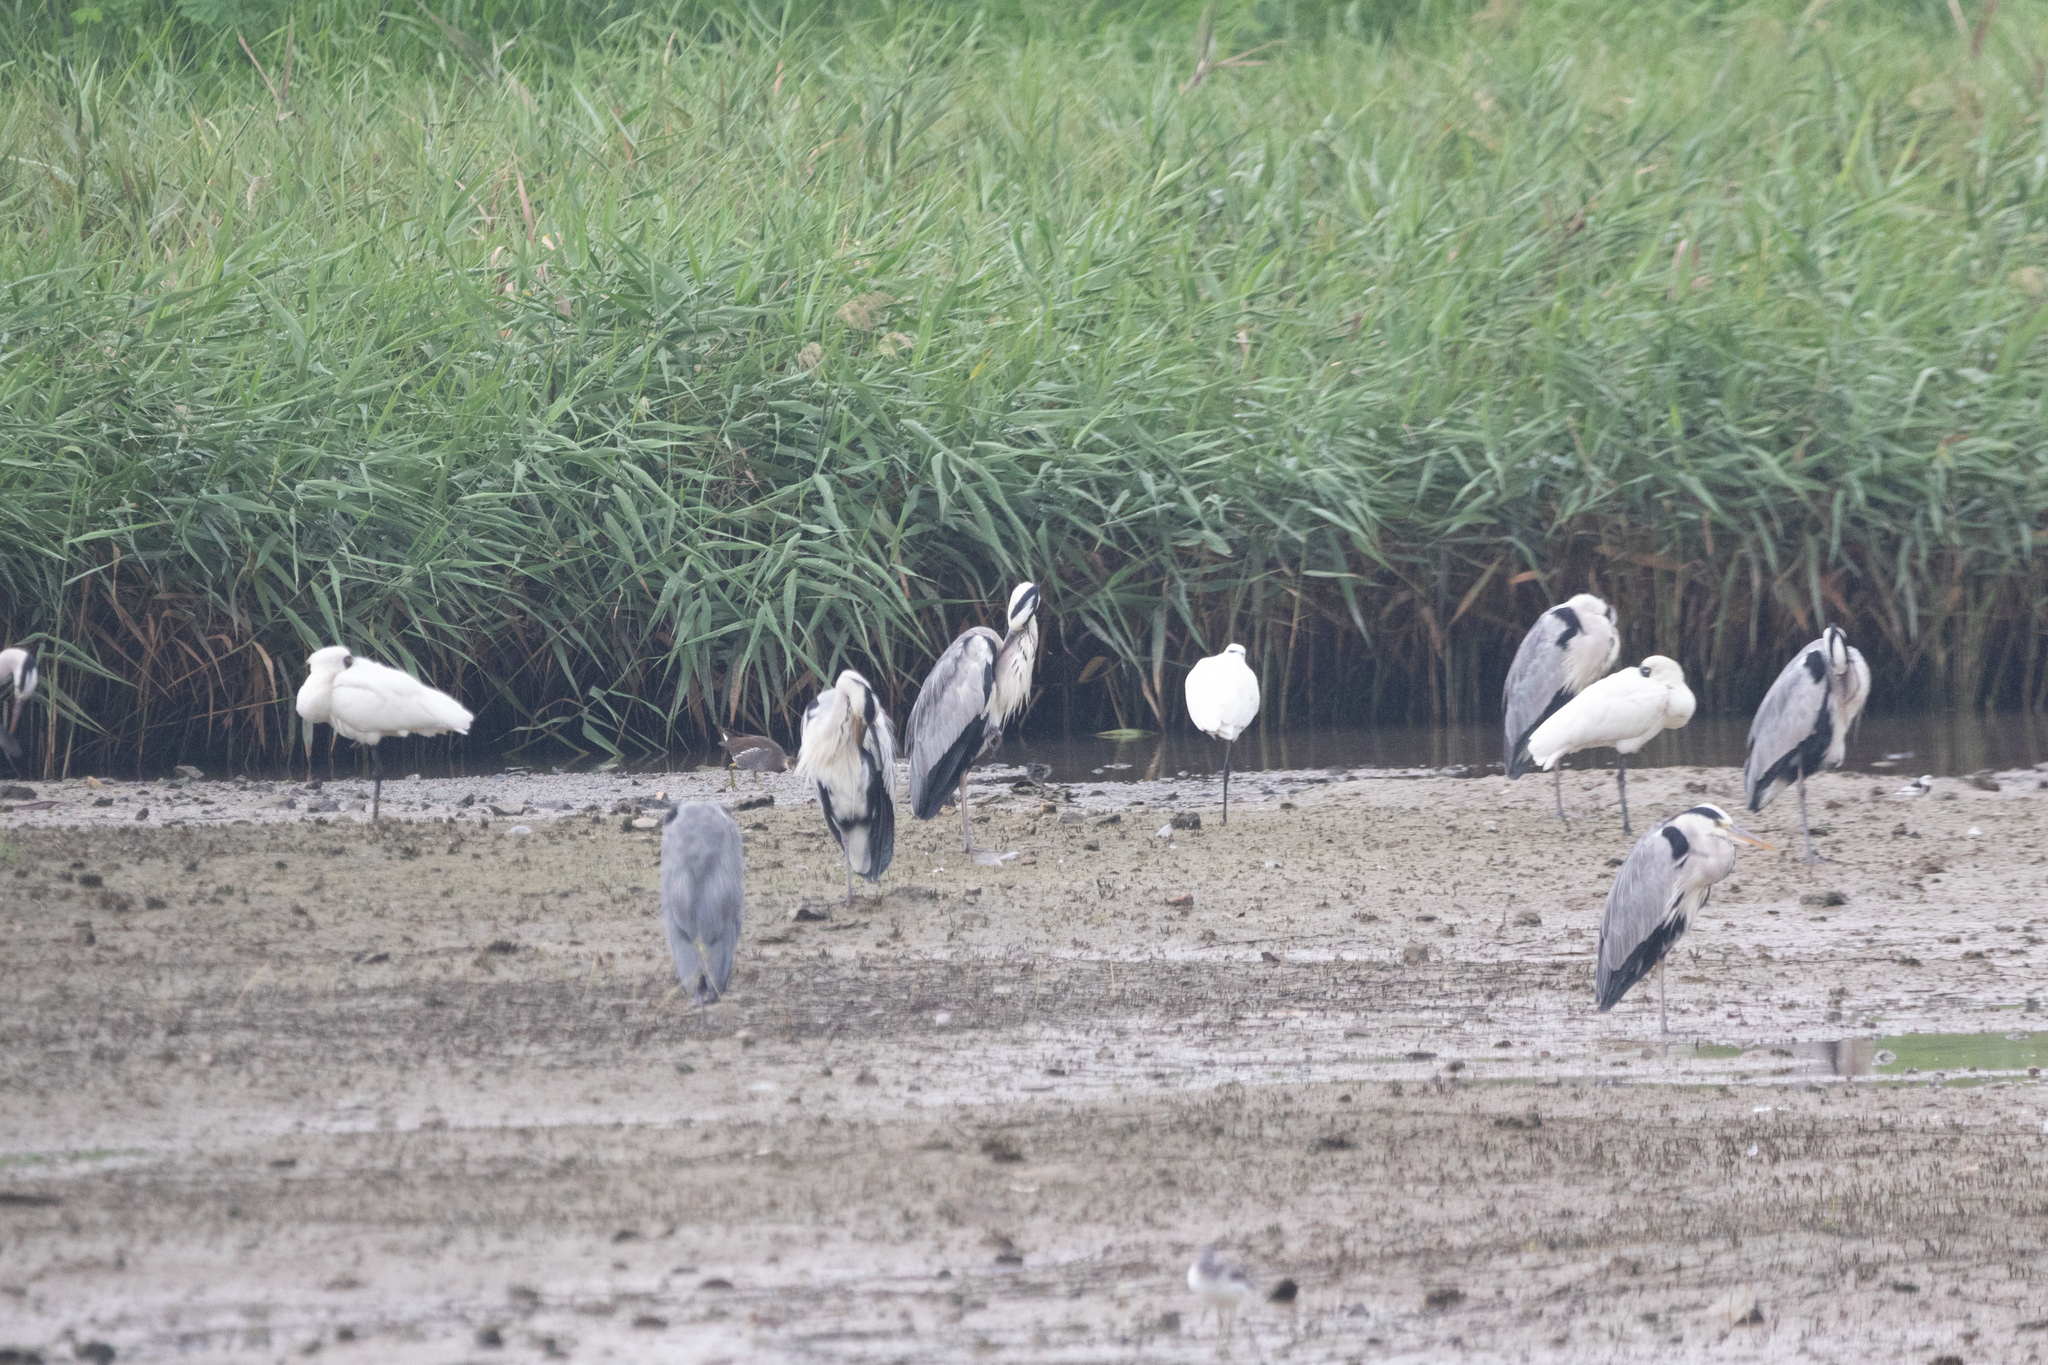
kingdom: Animalia
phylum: Chordata
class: Aves
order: Pelecaniformes
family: Ardeidae
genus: Ardea
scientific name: Ardea cinerea
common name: Grey heron
